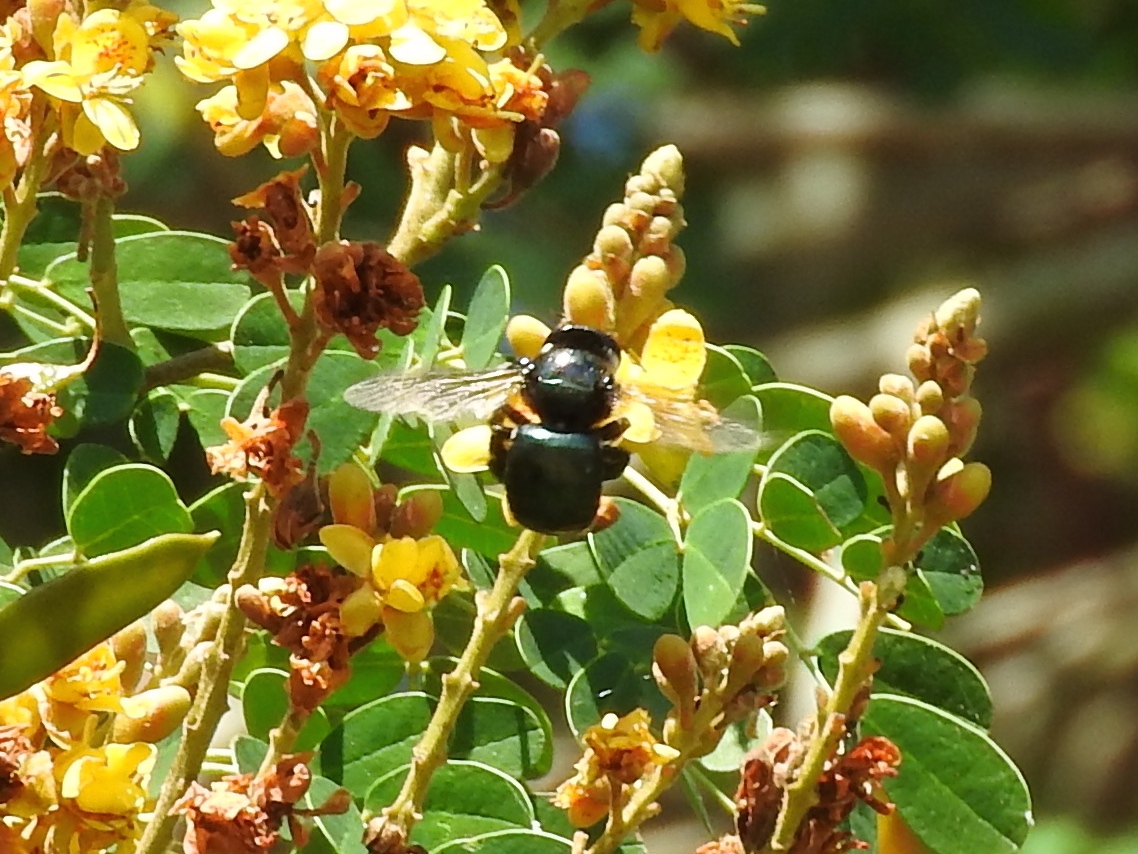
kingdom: Animalia
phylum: Arthropoda
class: Insecta
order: Hymenoptera
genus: Schonnherria
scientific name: Schonnherria
